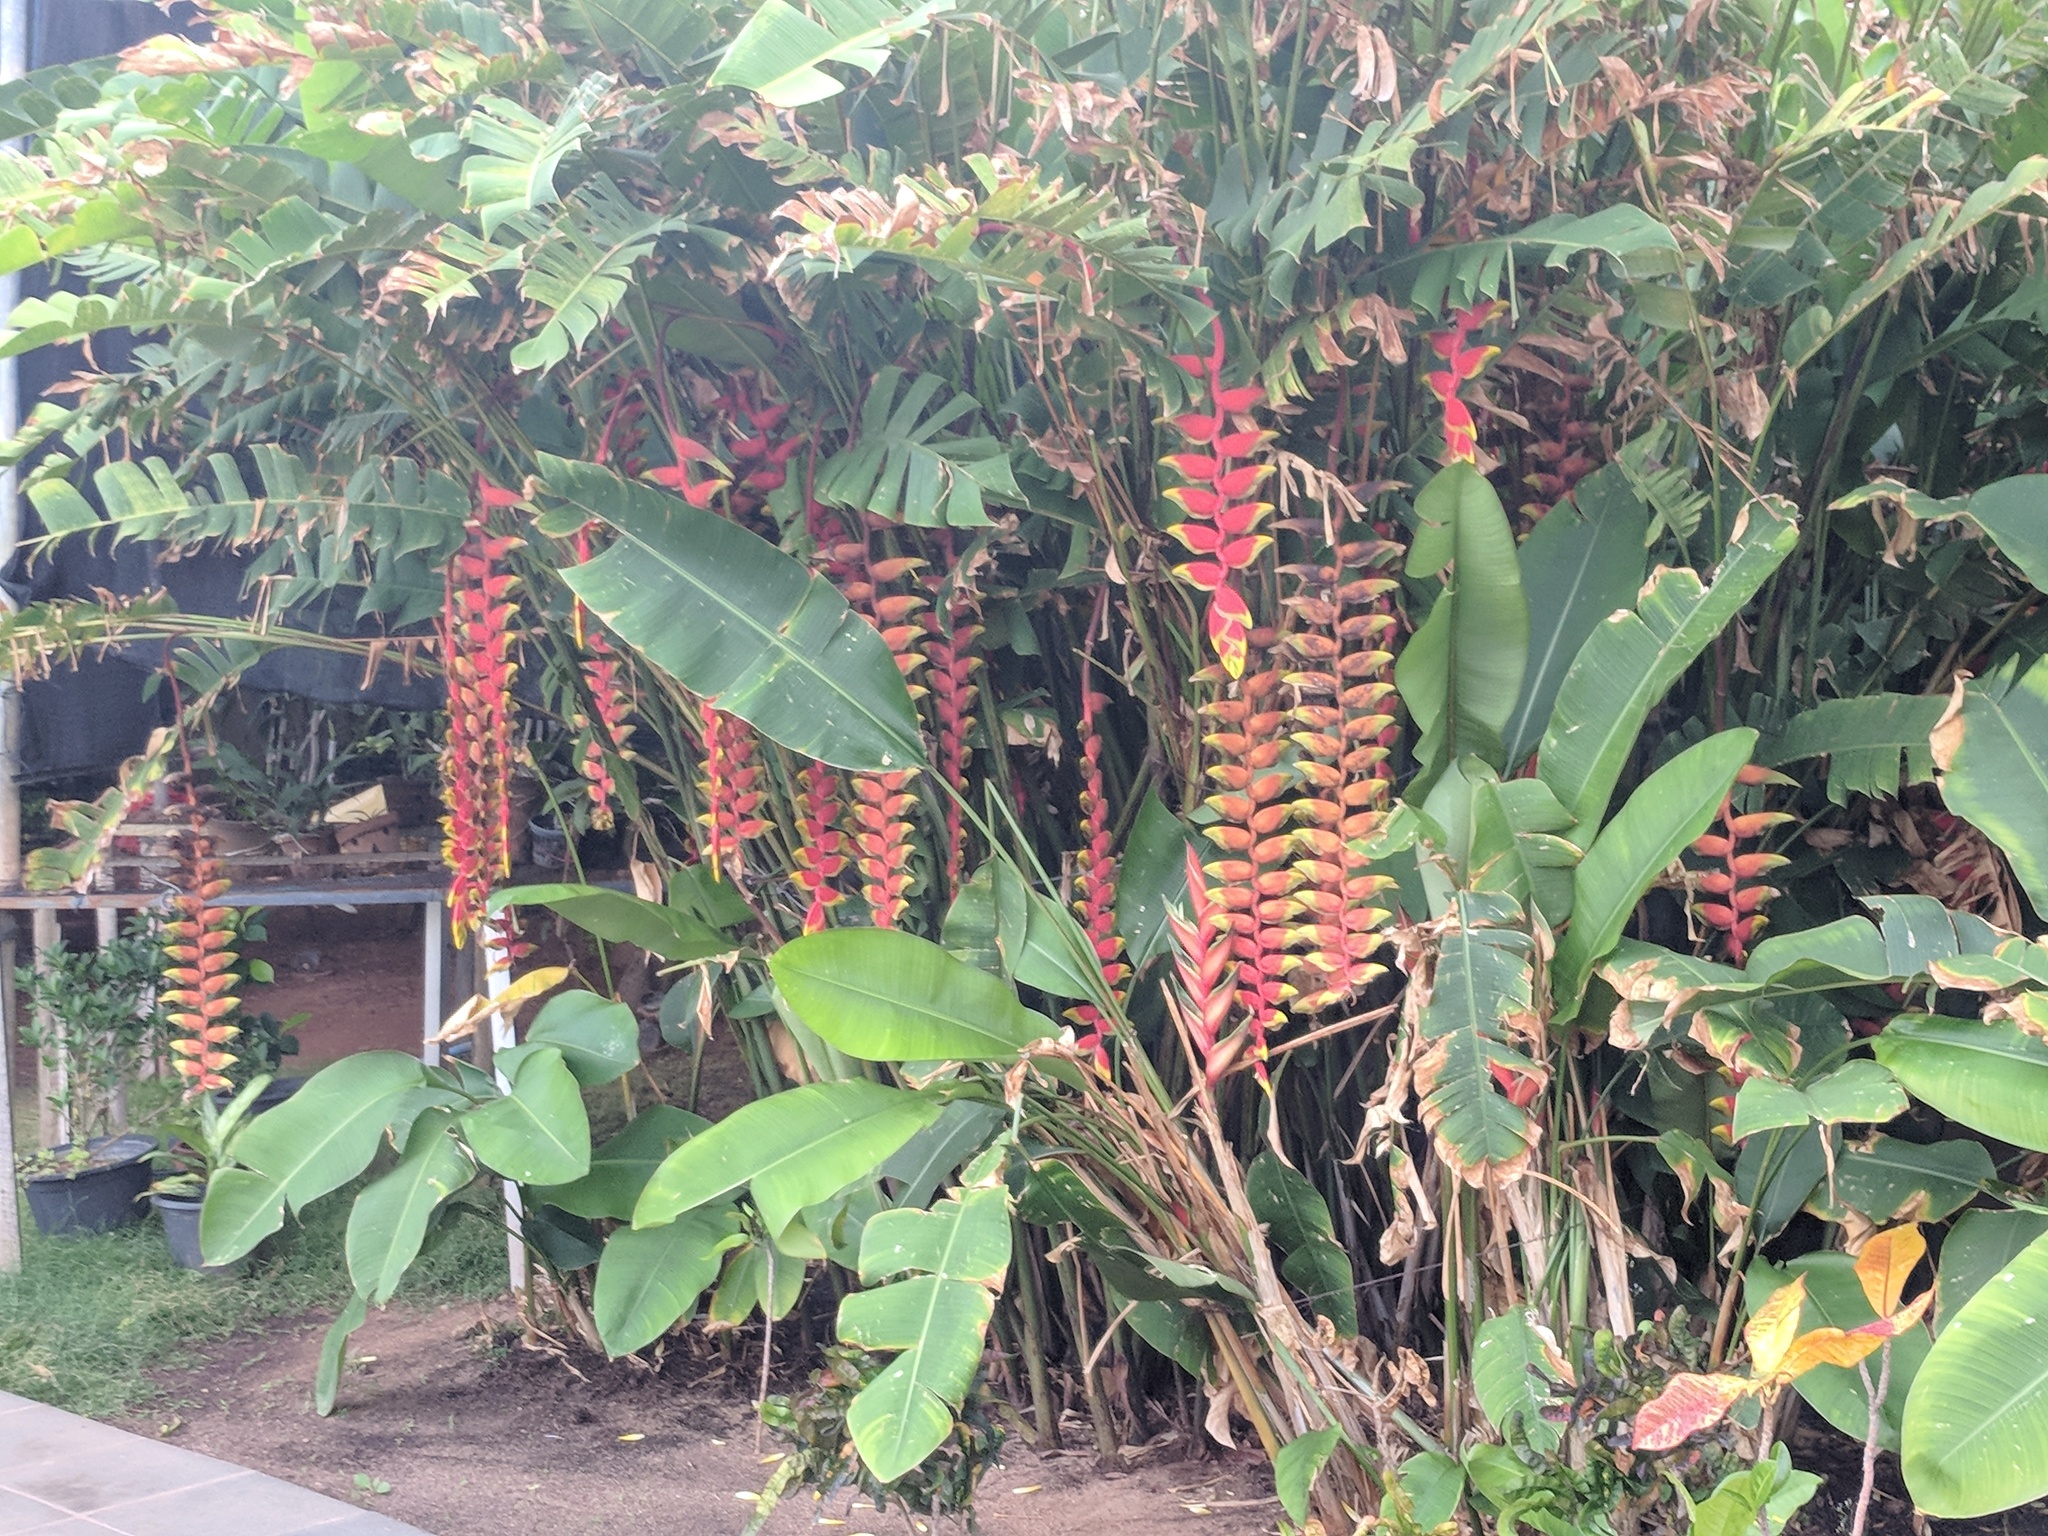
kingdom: Plantae
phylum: Tracheophyta
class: Liliopsida
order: Zingiberales
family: Heliconiaceae
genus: Heliconia
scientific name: Heliconia rostrata
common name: False bird of paradise
